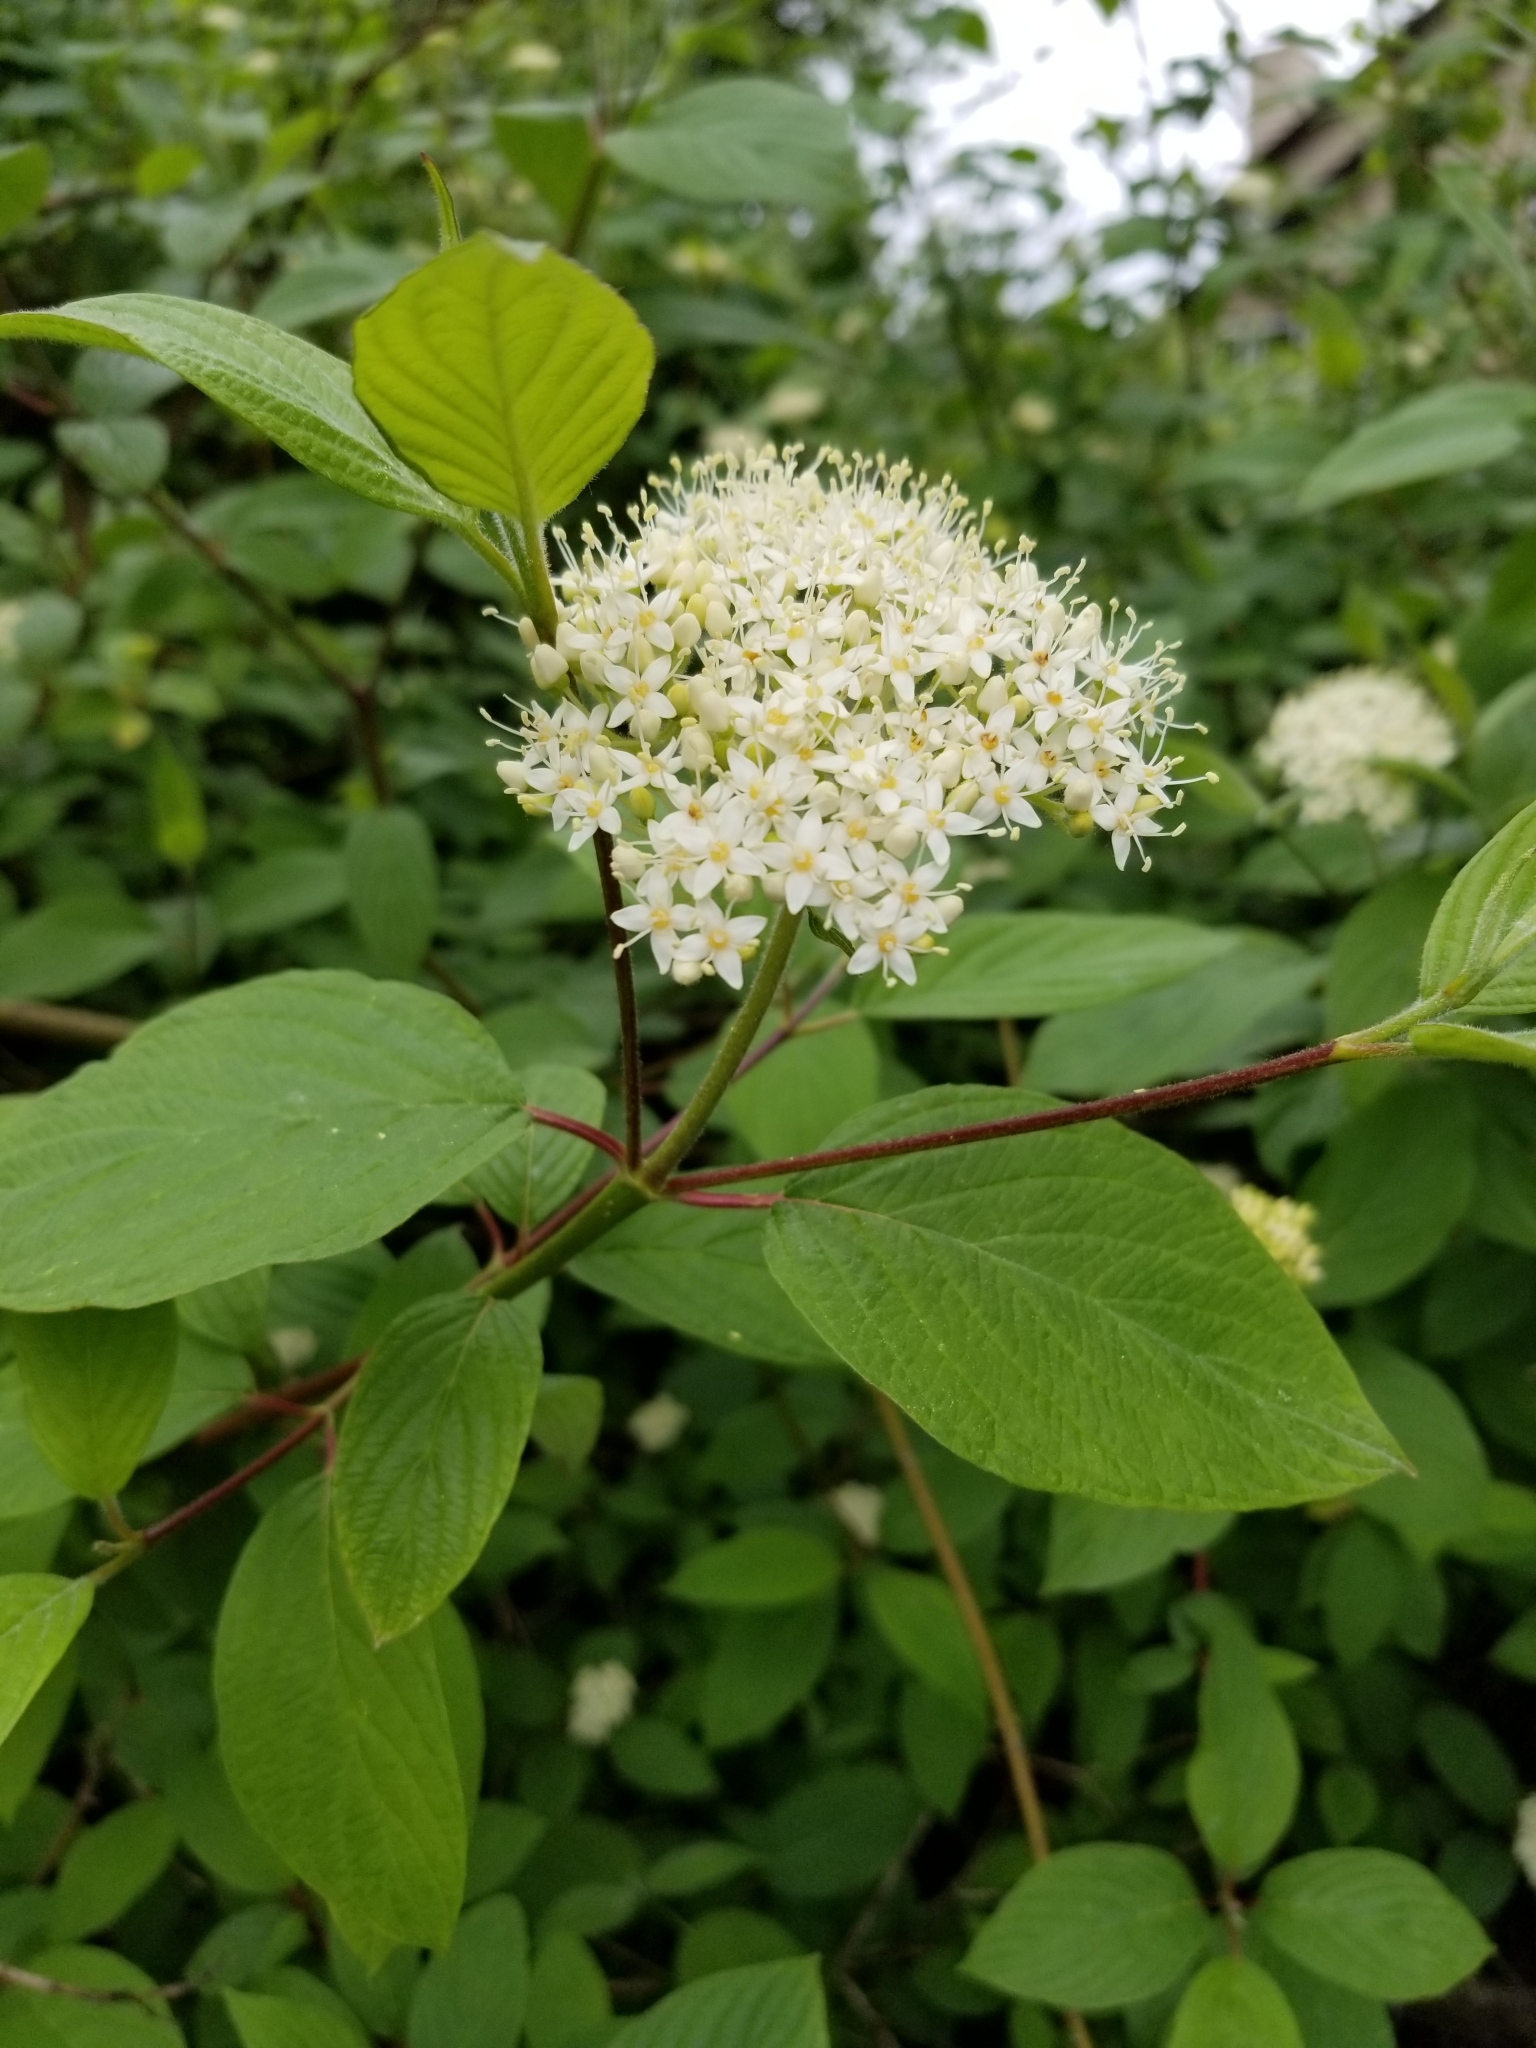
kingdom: Plantae
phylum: Tracheophyta
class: Magnoliopsida
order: Cornales
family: Cornaceae
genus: Cornus
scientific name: Cornus sericea
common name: Red-osier dogwood
